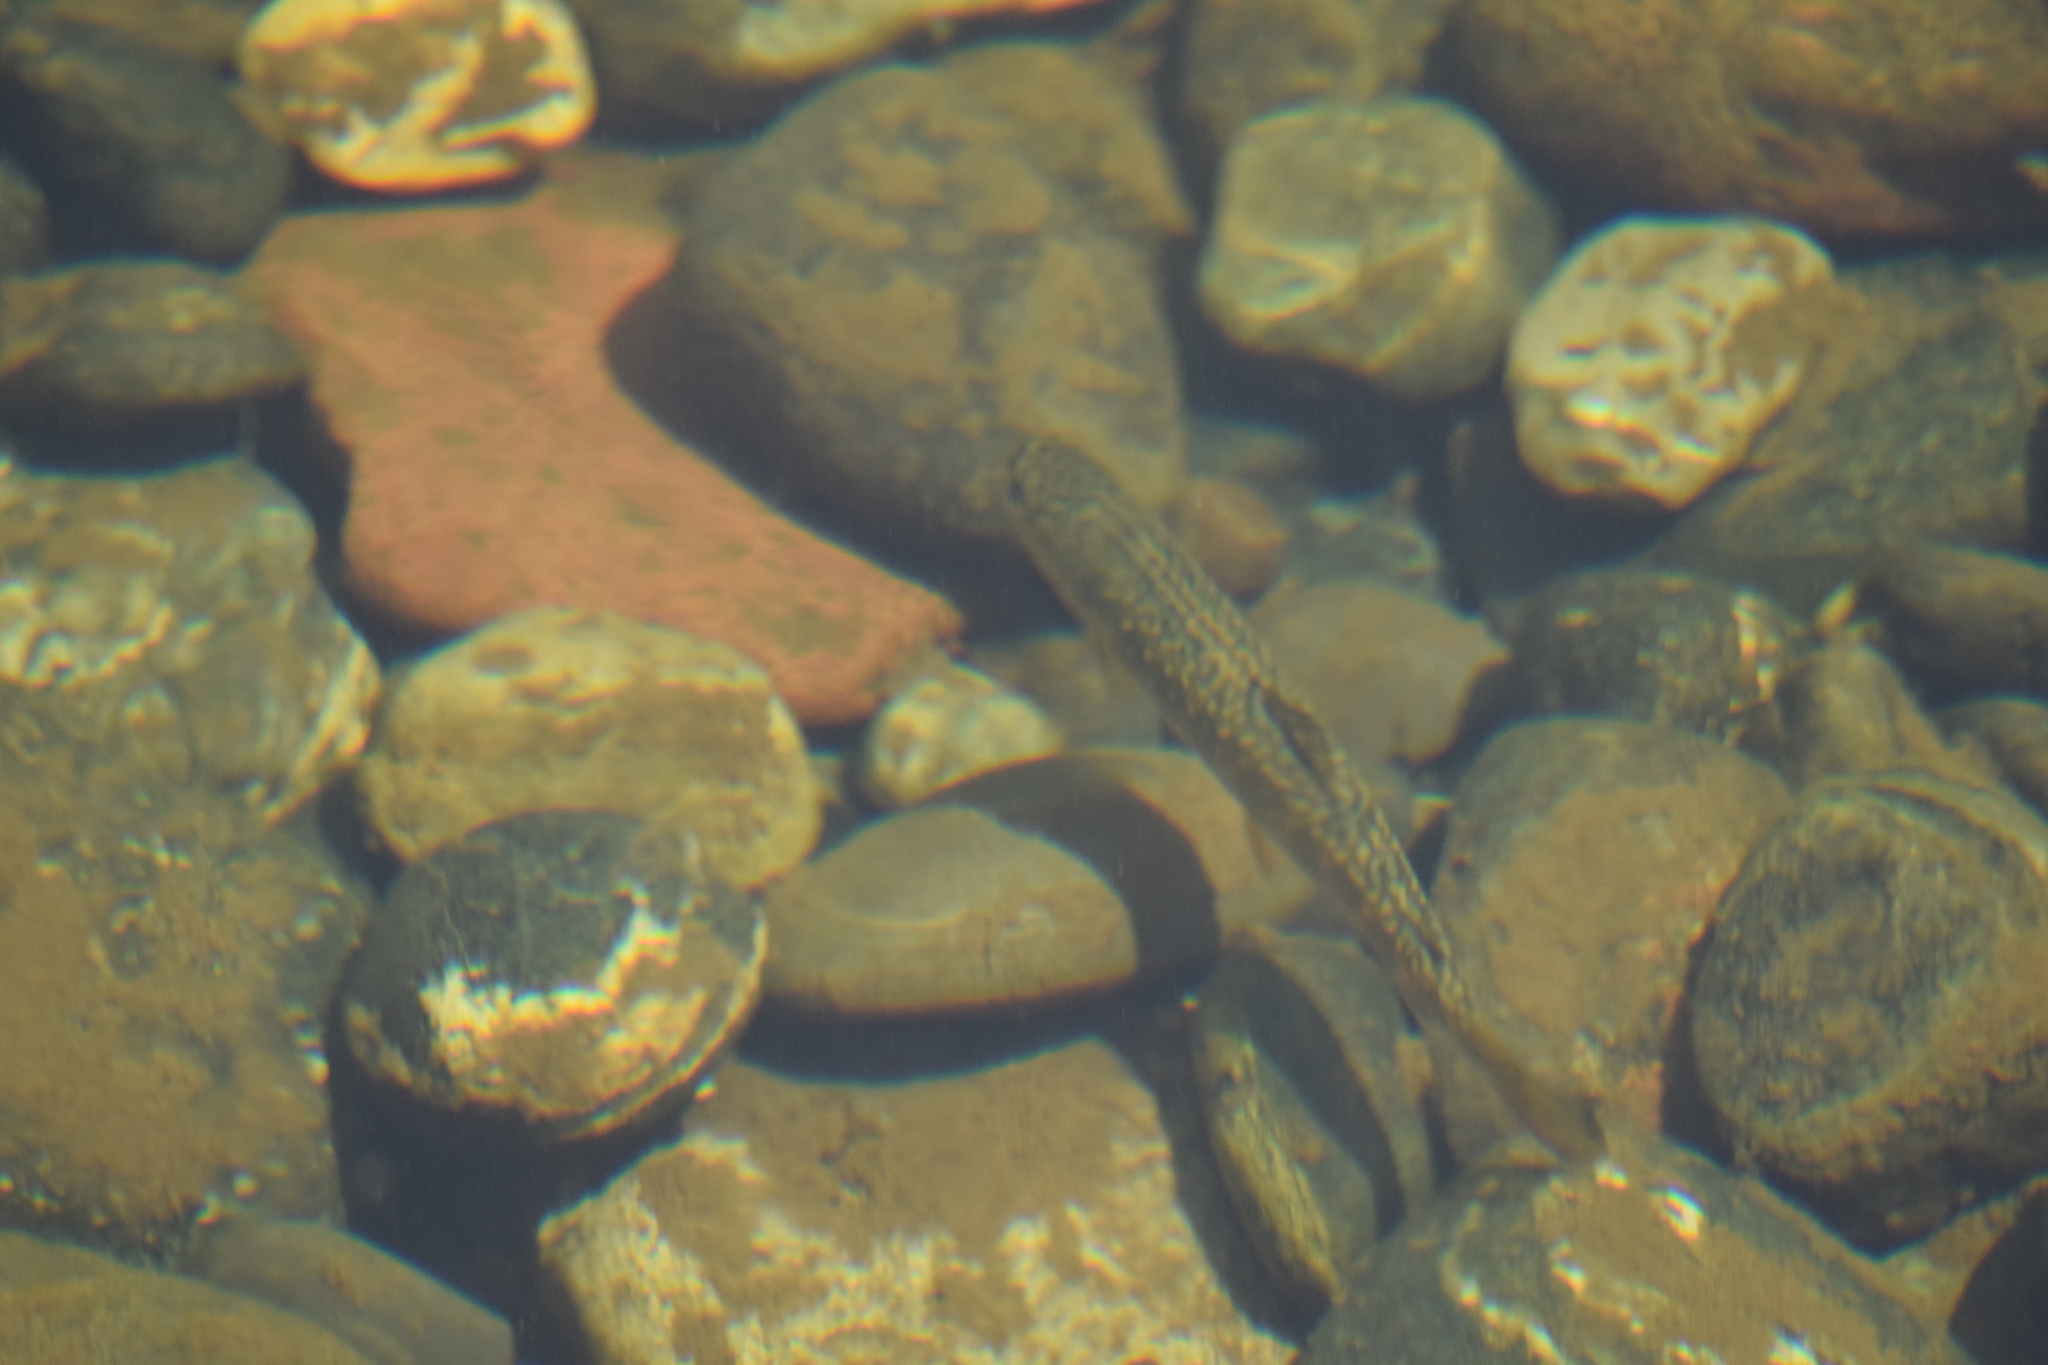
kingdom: Animalia
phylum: Chordata
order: Salmoniformes
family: Salmonidae
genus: Salvelinus
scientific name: Salvelinus fontinalis
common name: Brook trout
